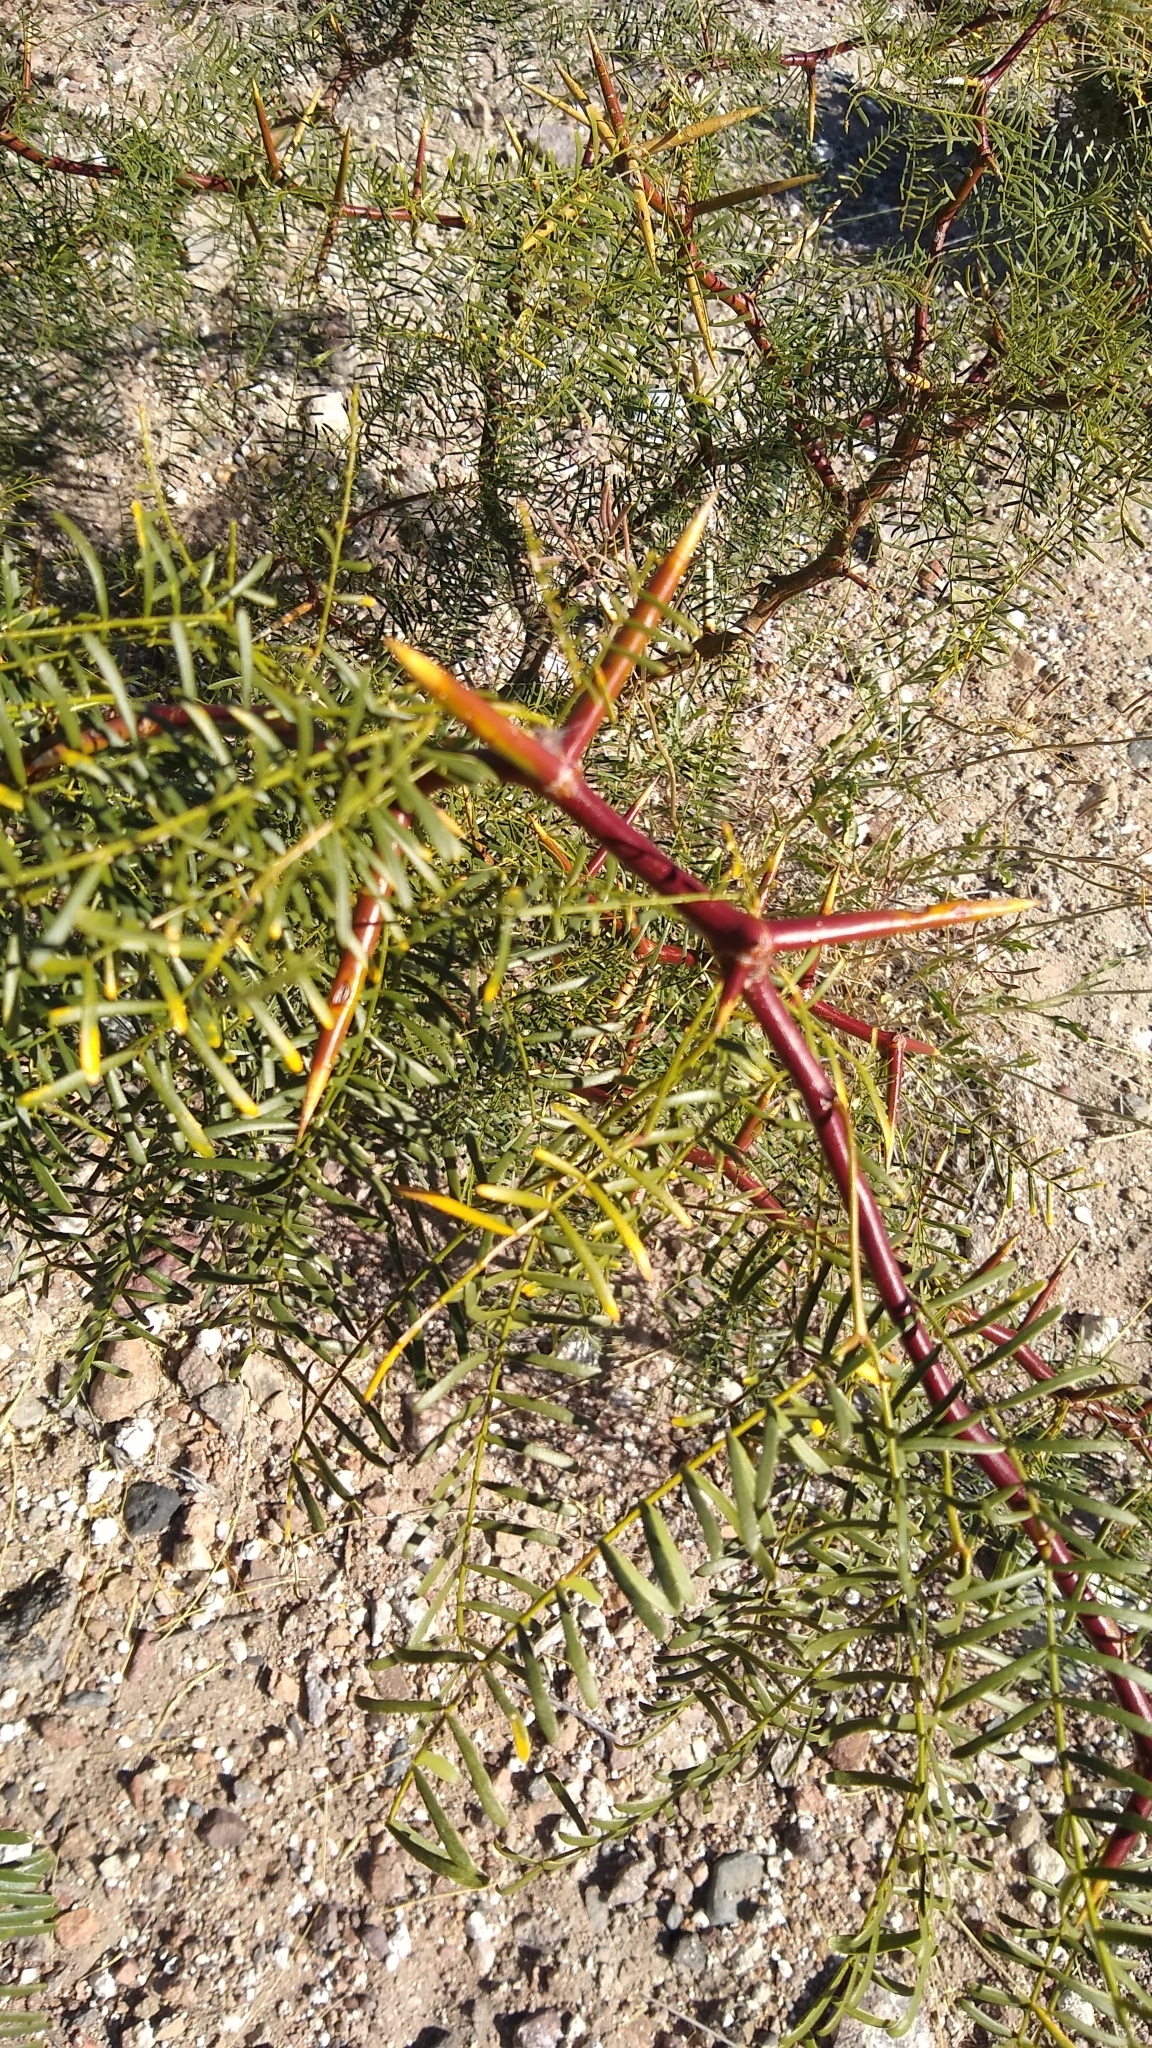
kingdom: Plantae
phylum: Tracheophyta
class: Magnoliopsida
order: Fabales
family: Fabaceae
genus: Prosopis
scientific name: Prosopis alpataco
